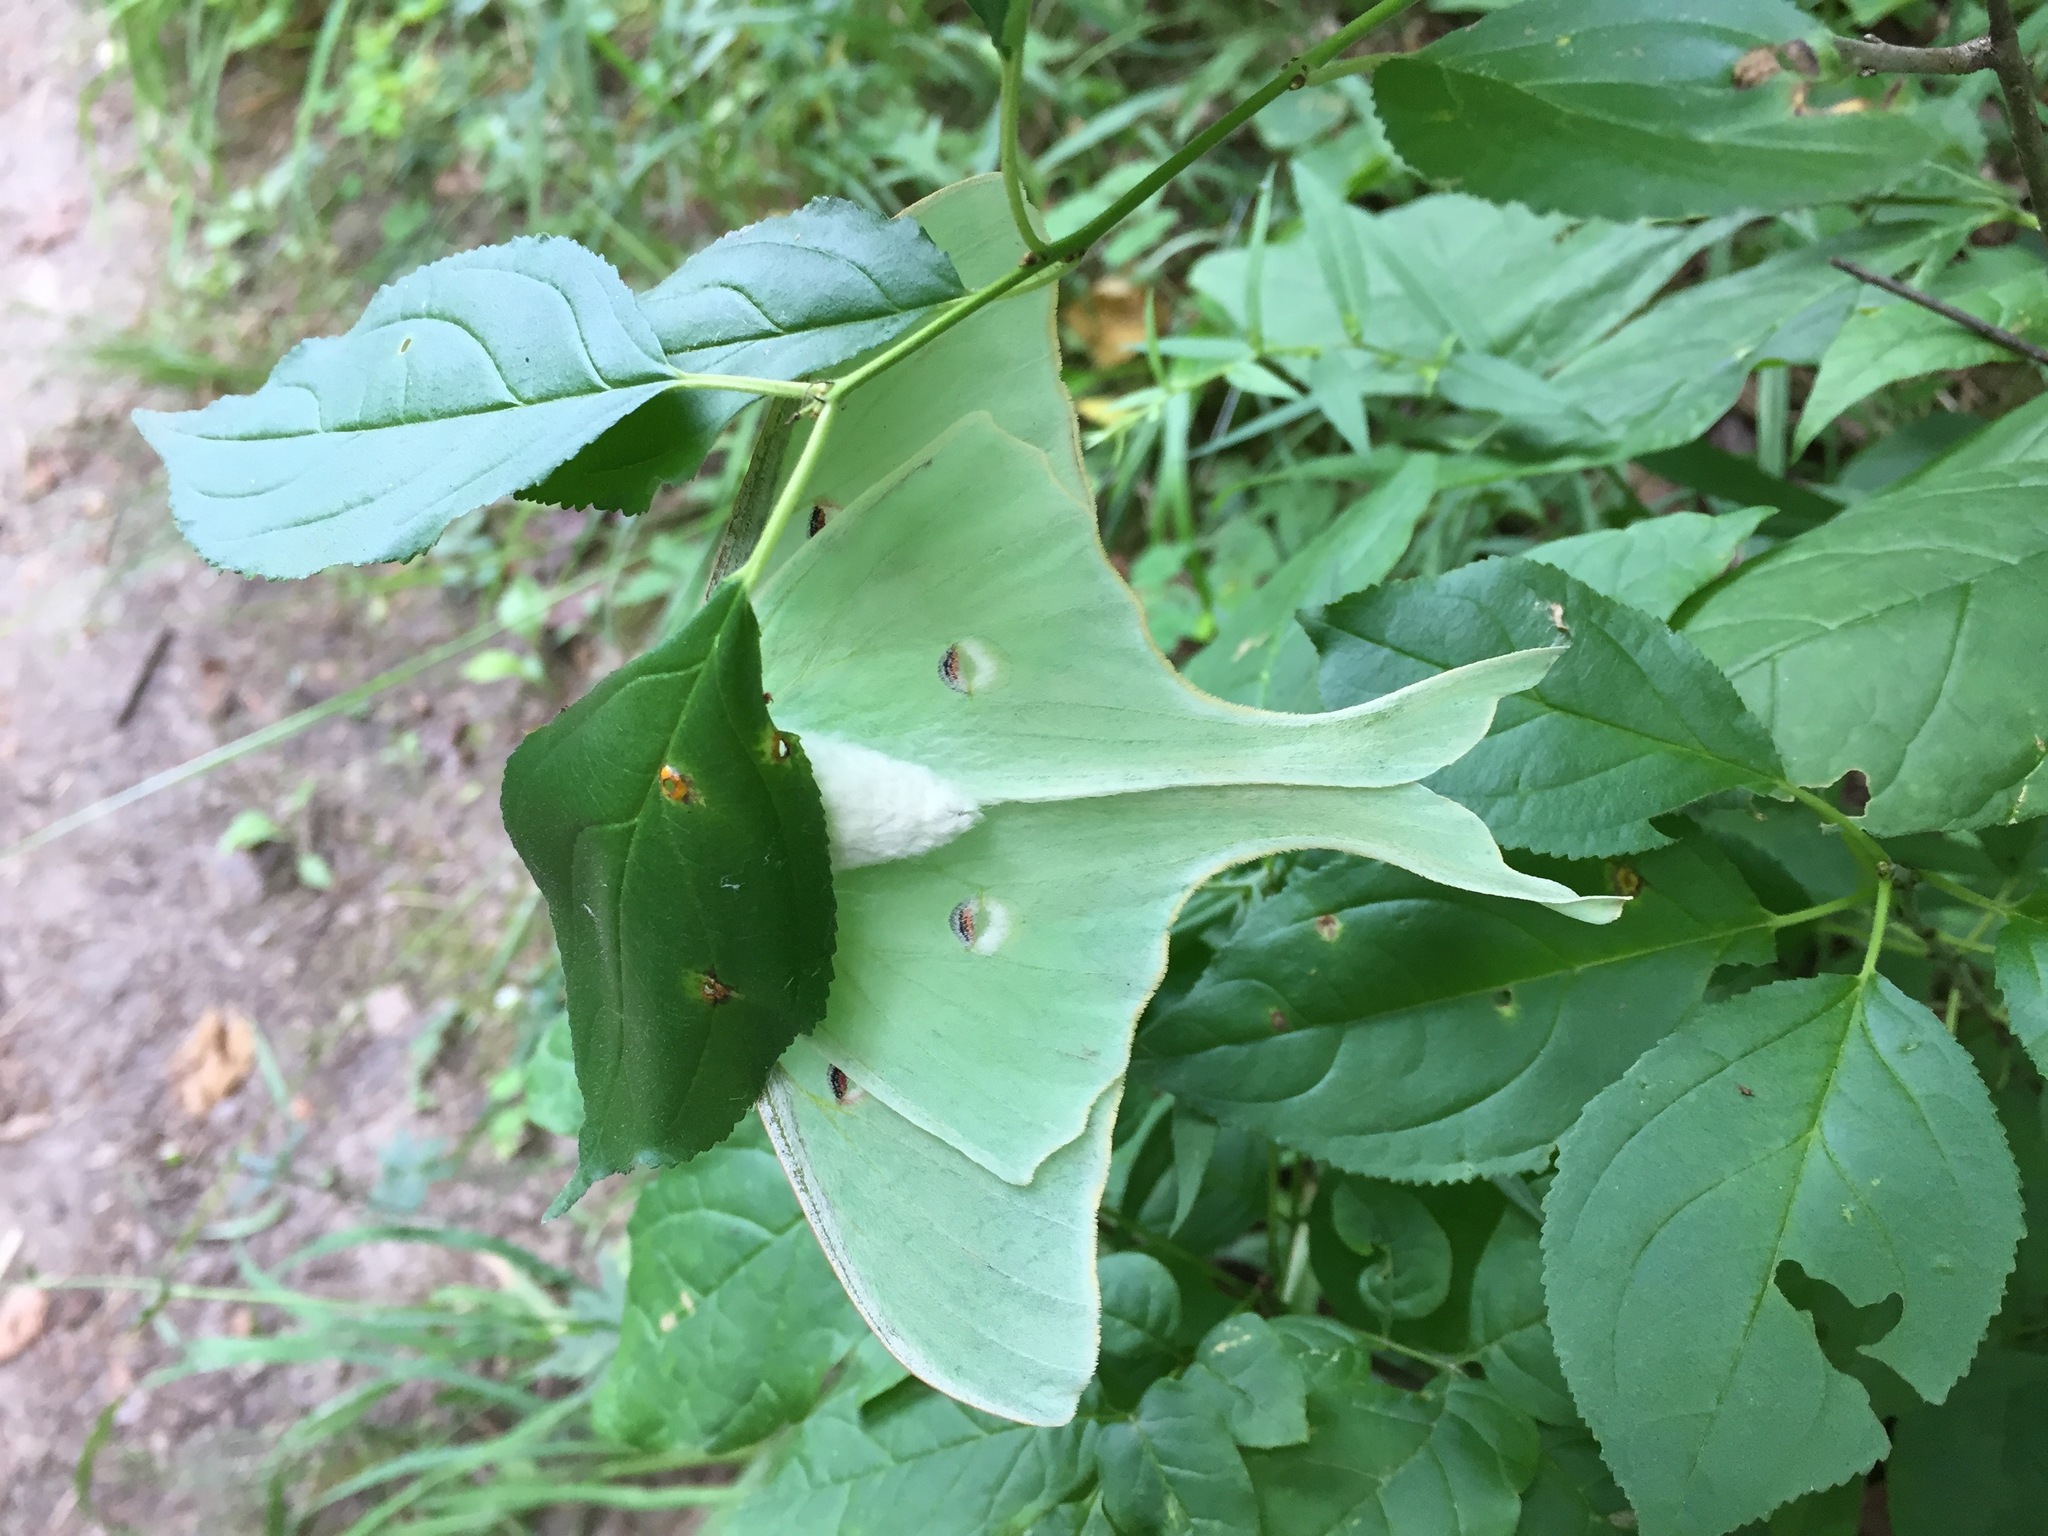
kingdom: Animalia
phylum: Arthropoda
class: Insecta
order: Lepidoptera
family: Saturniidae
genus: Actias
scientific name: Actias luna
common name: Luna moth
